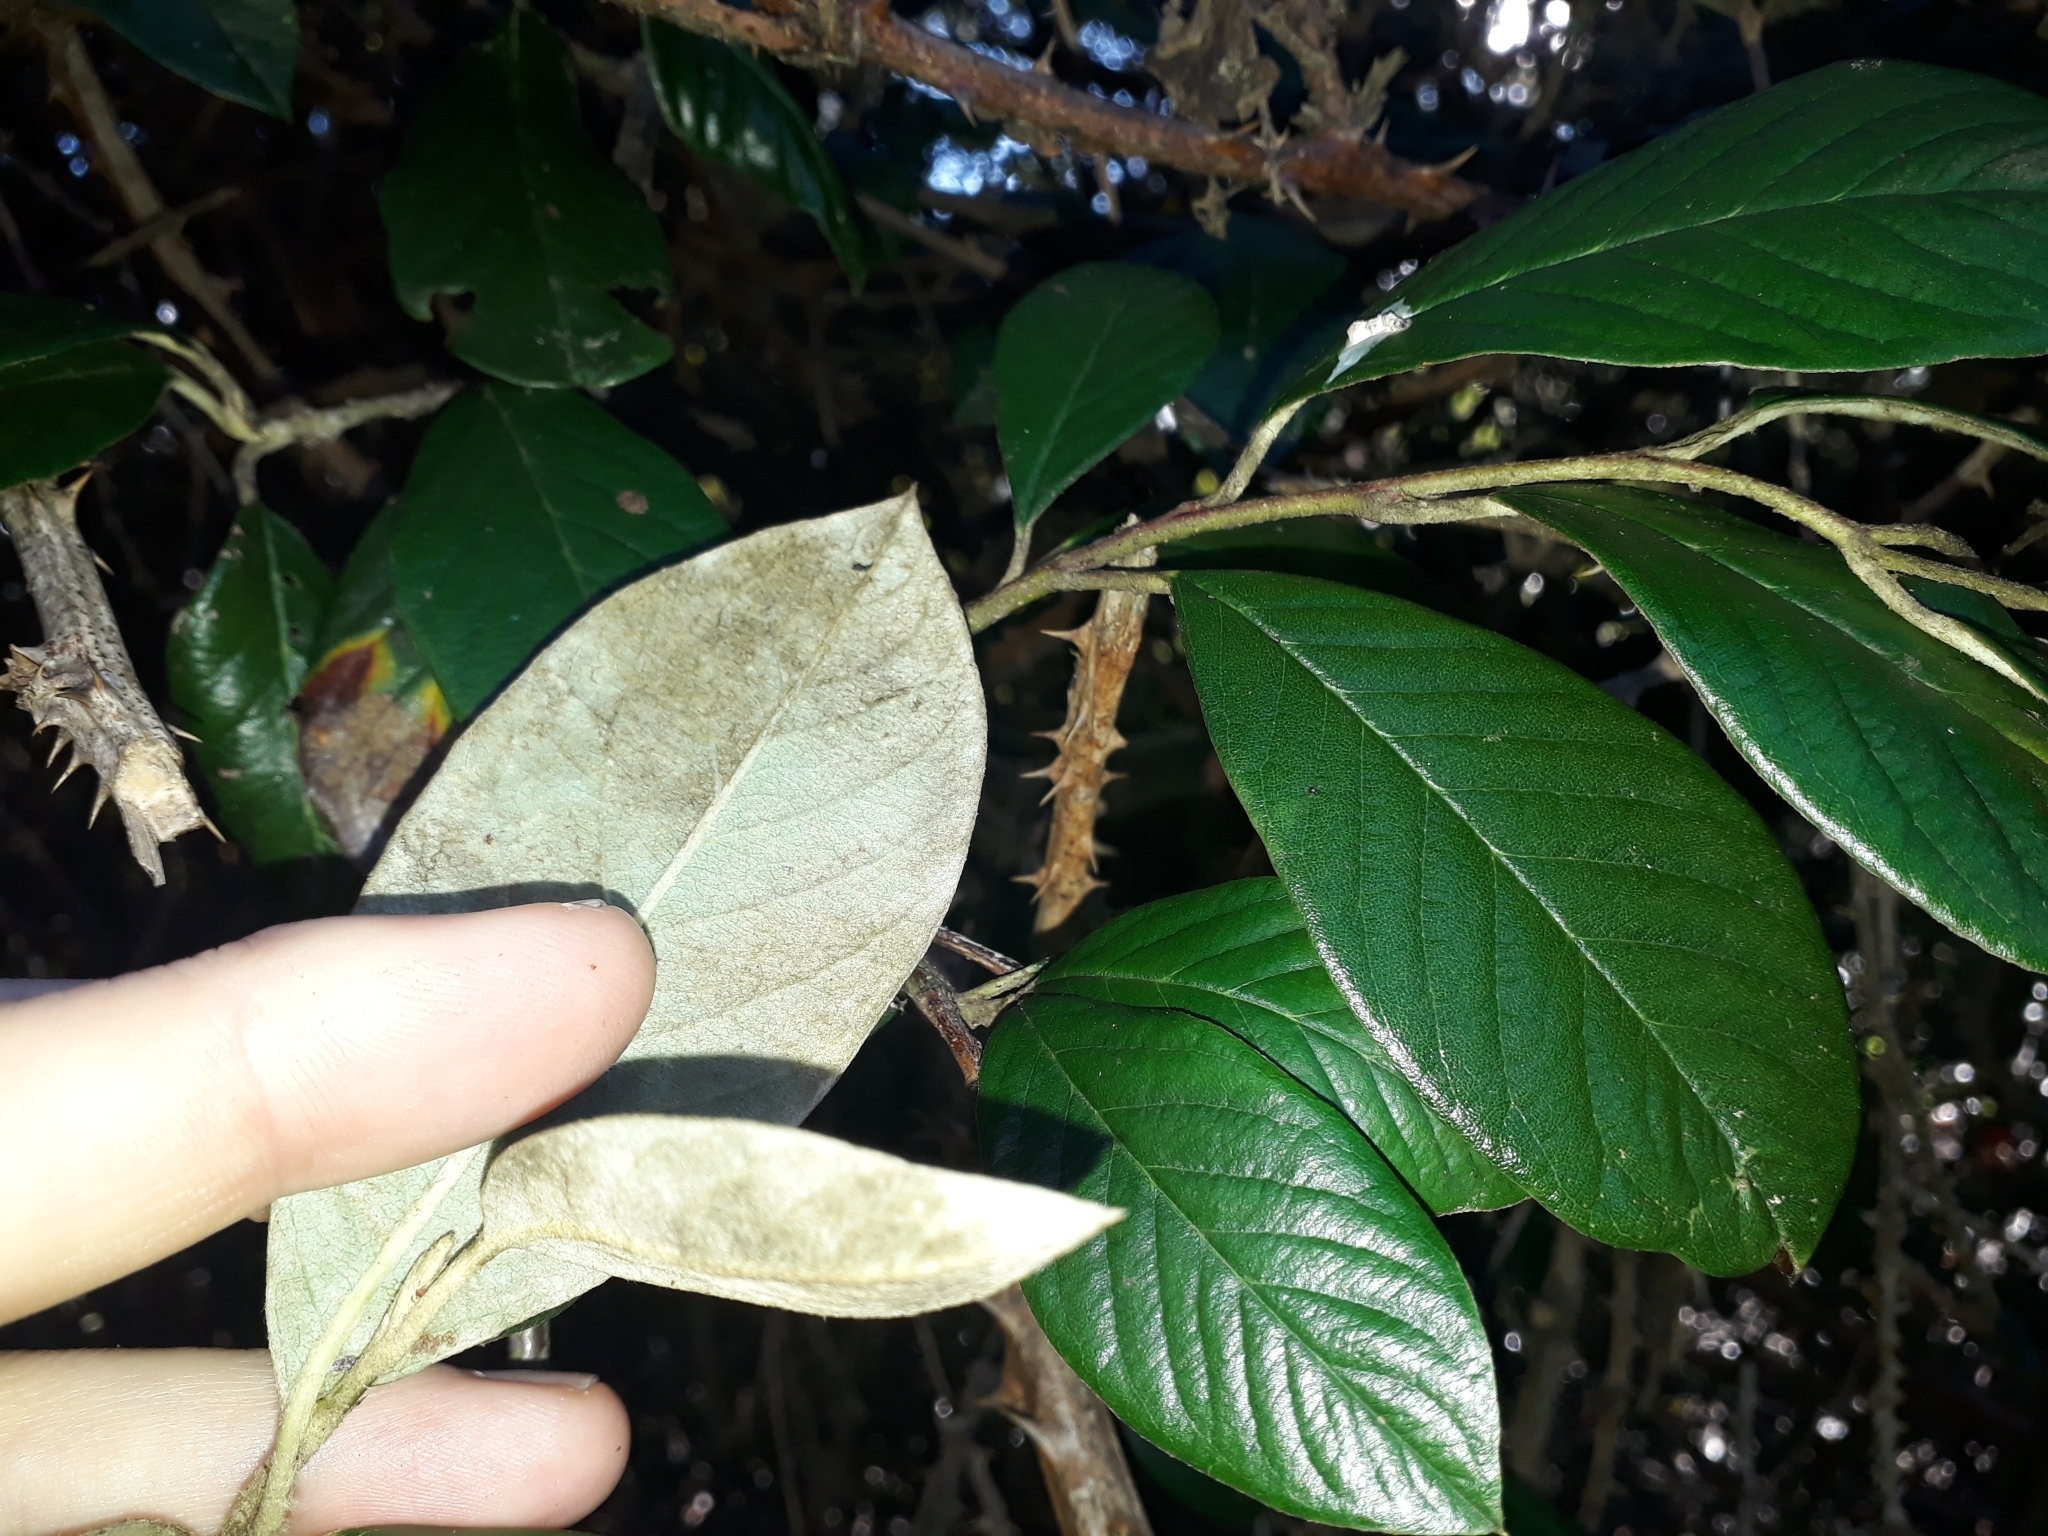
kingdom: Plantae
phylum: Tracheophyta
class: Magnoliopsida
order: Rosales
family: Rosaceae
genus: Cotoneaster
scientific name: Cotoneaster coriaceus
